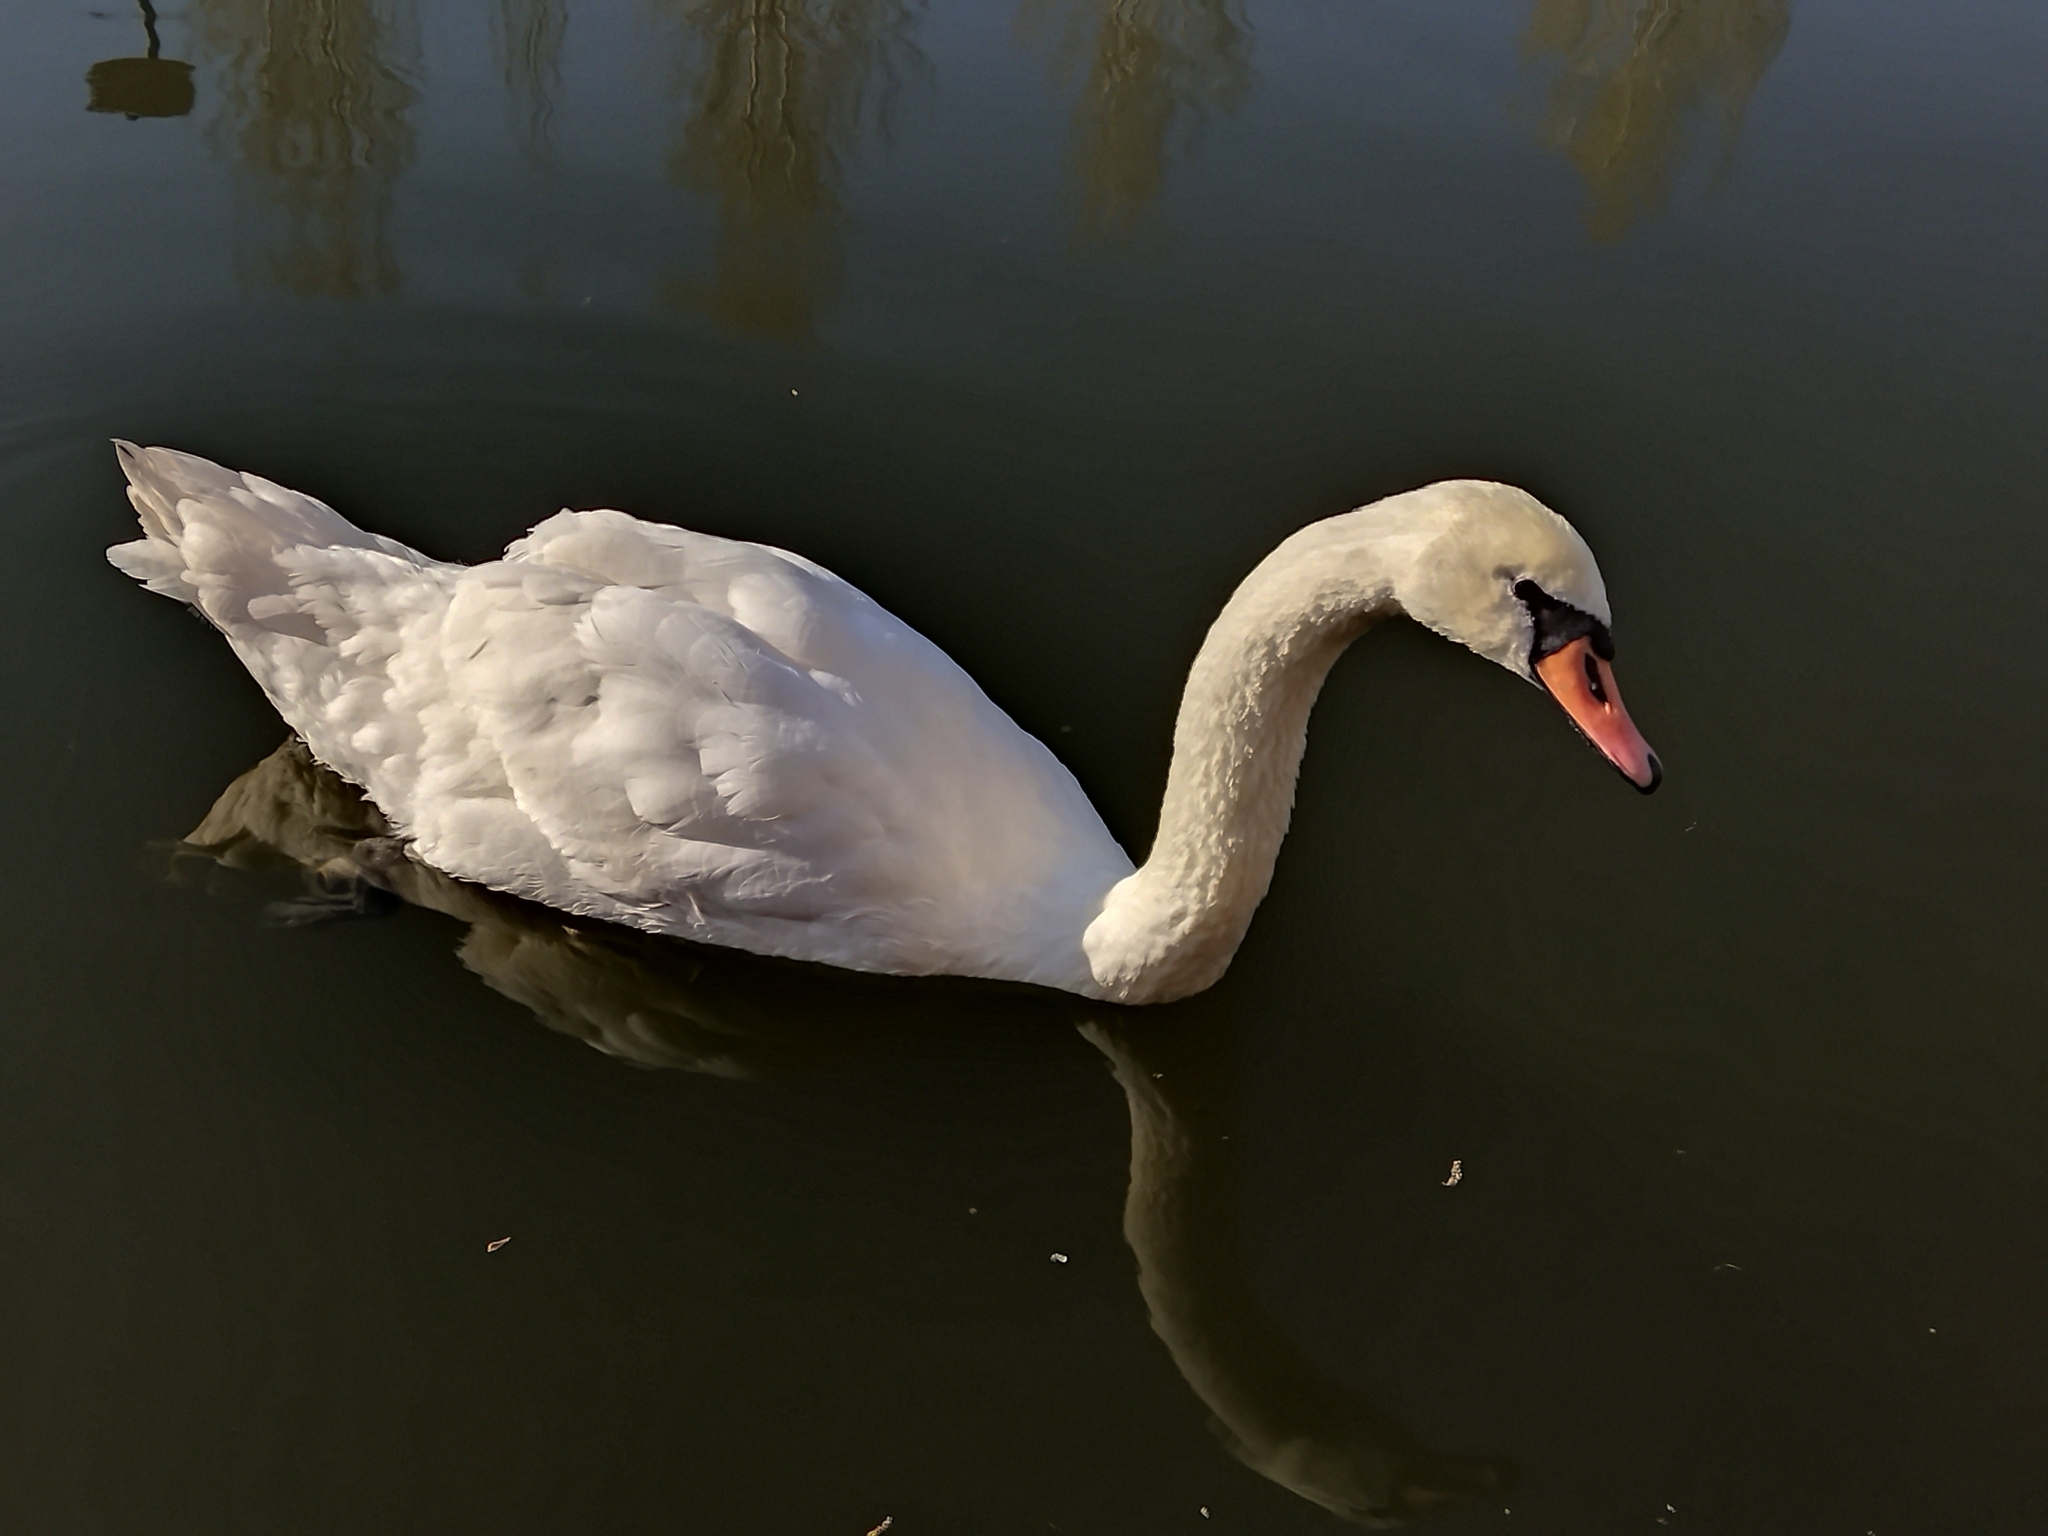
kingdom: Animalia
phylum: Chordata
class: Aves
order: Anseriformes
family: Anatidae
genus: Cygnus
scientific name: Cygnus olor
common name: Mute swan
